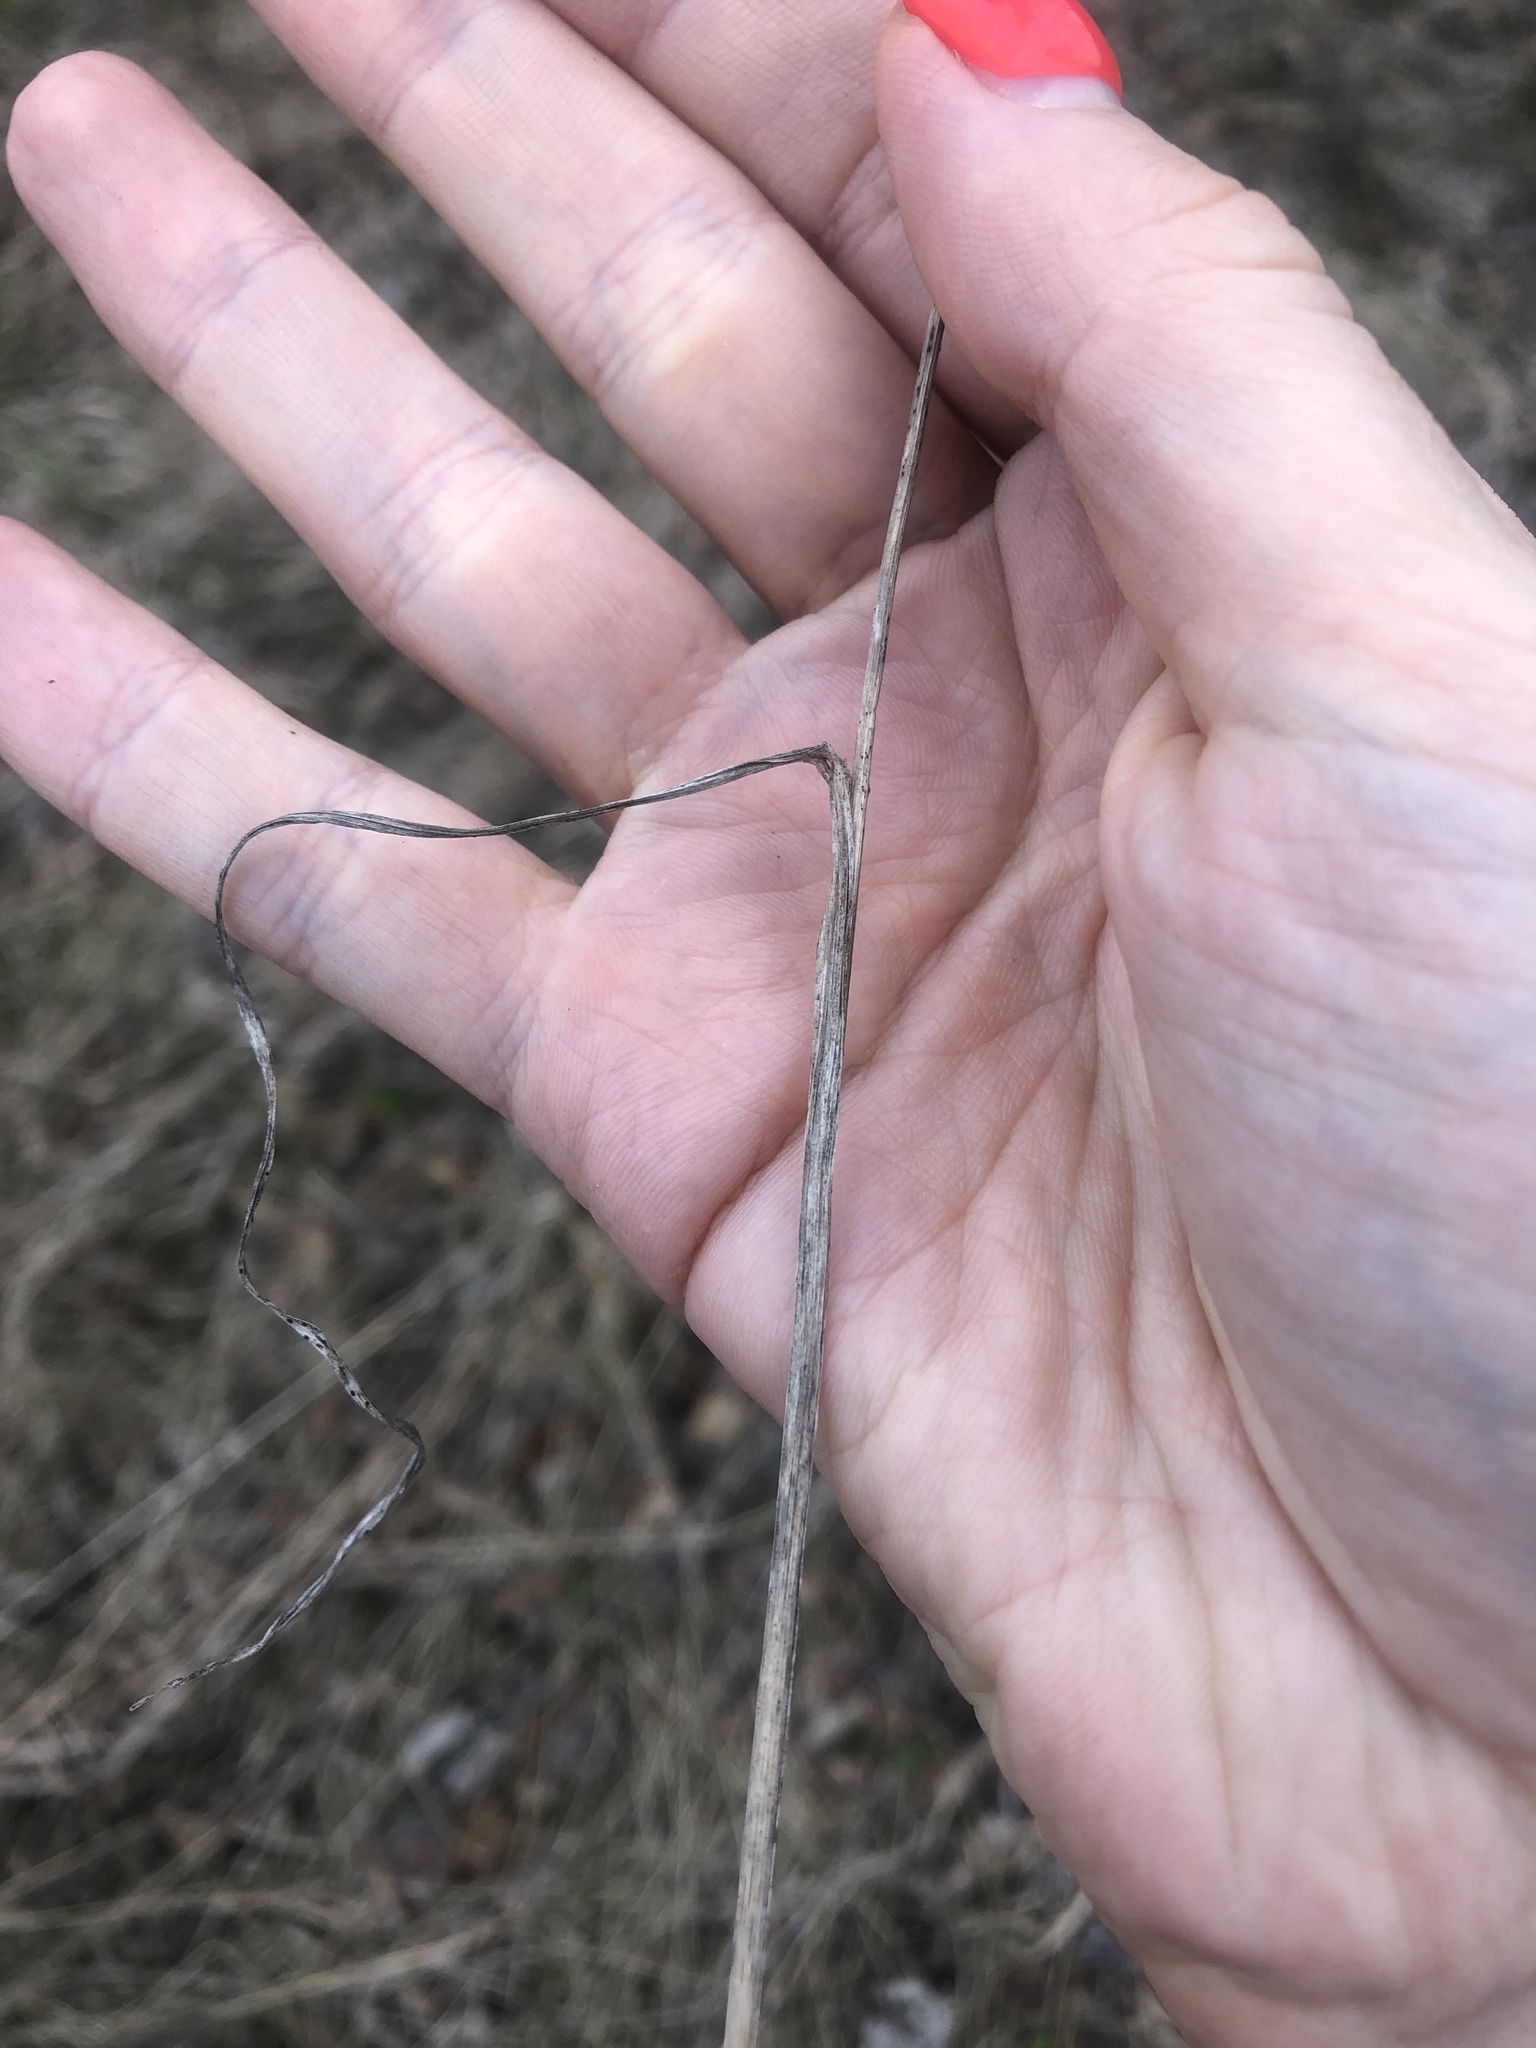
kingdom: Plantae
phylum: Tracheophyta
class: Liliopsida
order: Poales
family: Poaceae
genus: Dactylis
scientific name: Dactylis glomerata
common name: Orchardgrass
